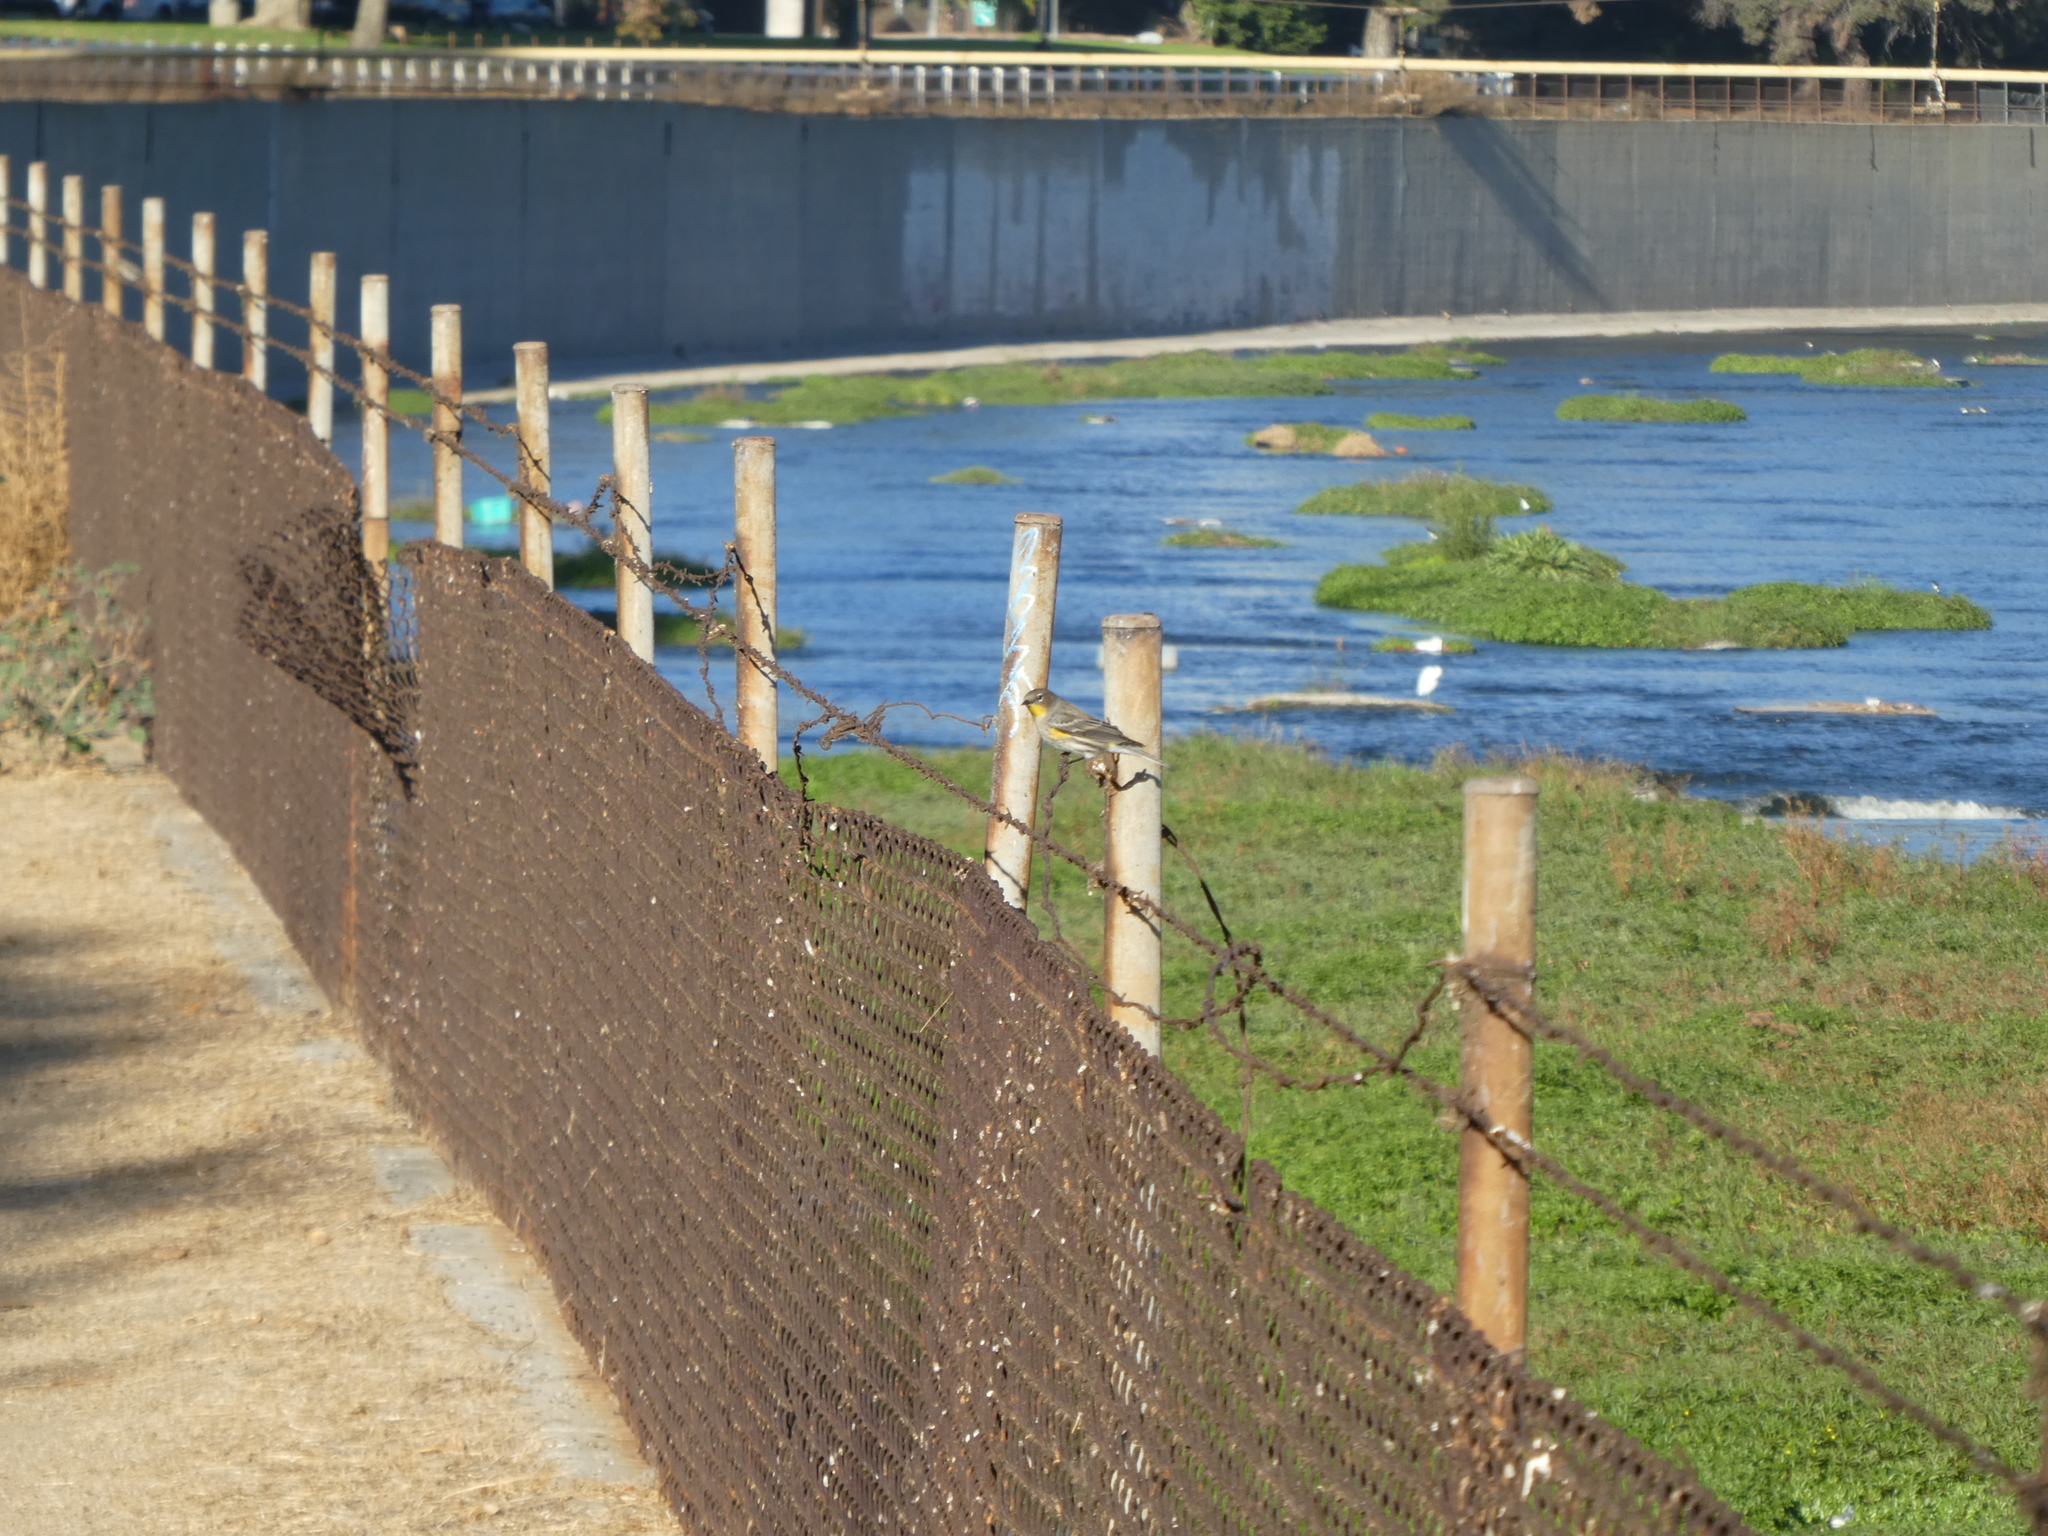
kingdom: Animalia
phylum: Chordata
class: Aves
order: Passeriformes
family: Parulidae
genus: Setophaga
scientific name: Setophaga coronata
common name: Myrtle warbler
